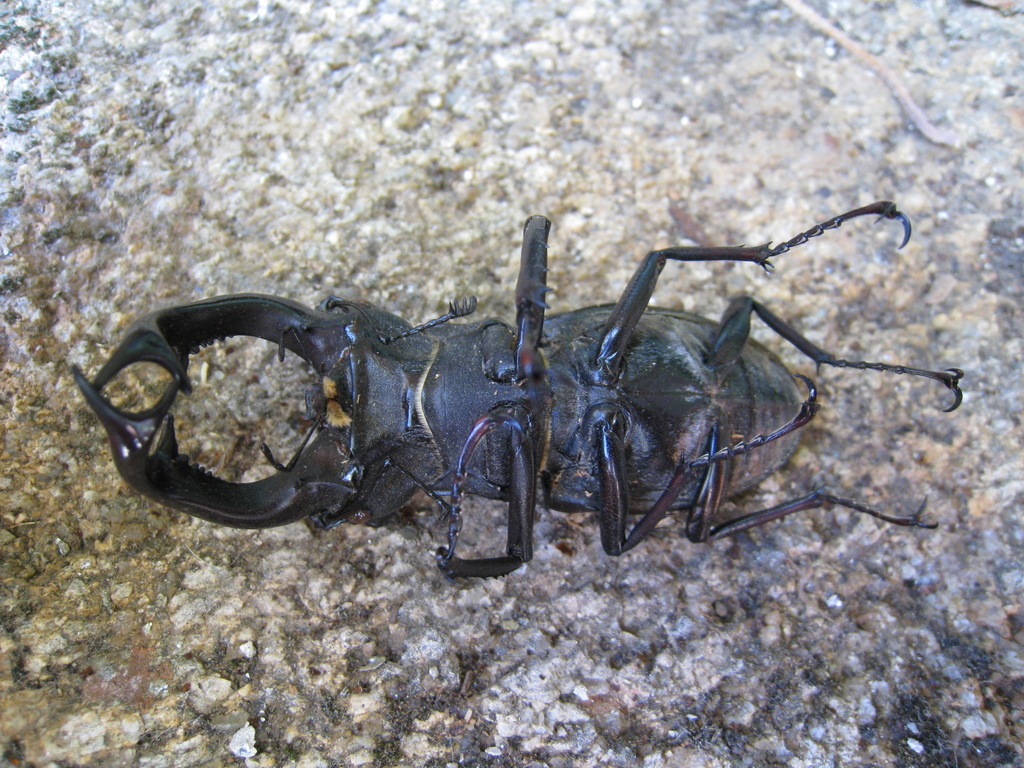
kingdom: Animalia
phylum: Arthropoda
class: Insecta
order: Coleoptera
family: Lucanidae
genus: Lucanus
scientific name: Lucanus cervus
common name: Stag beetle
